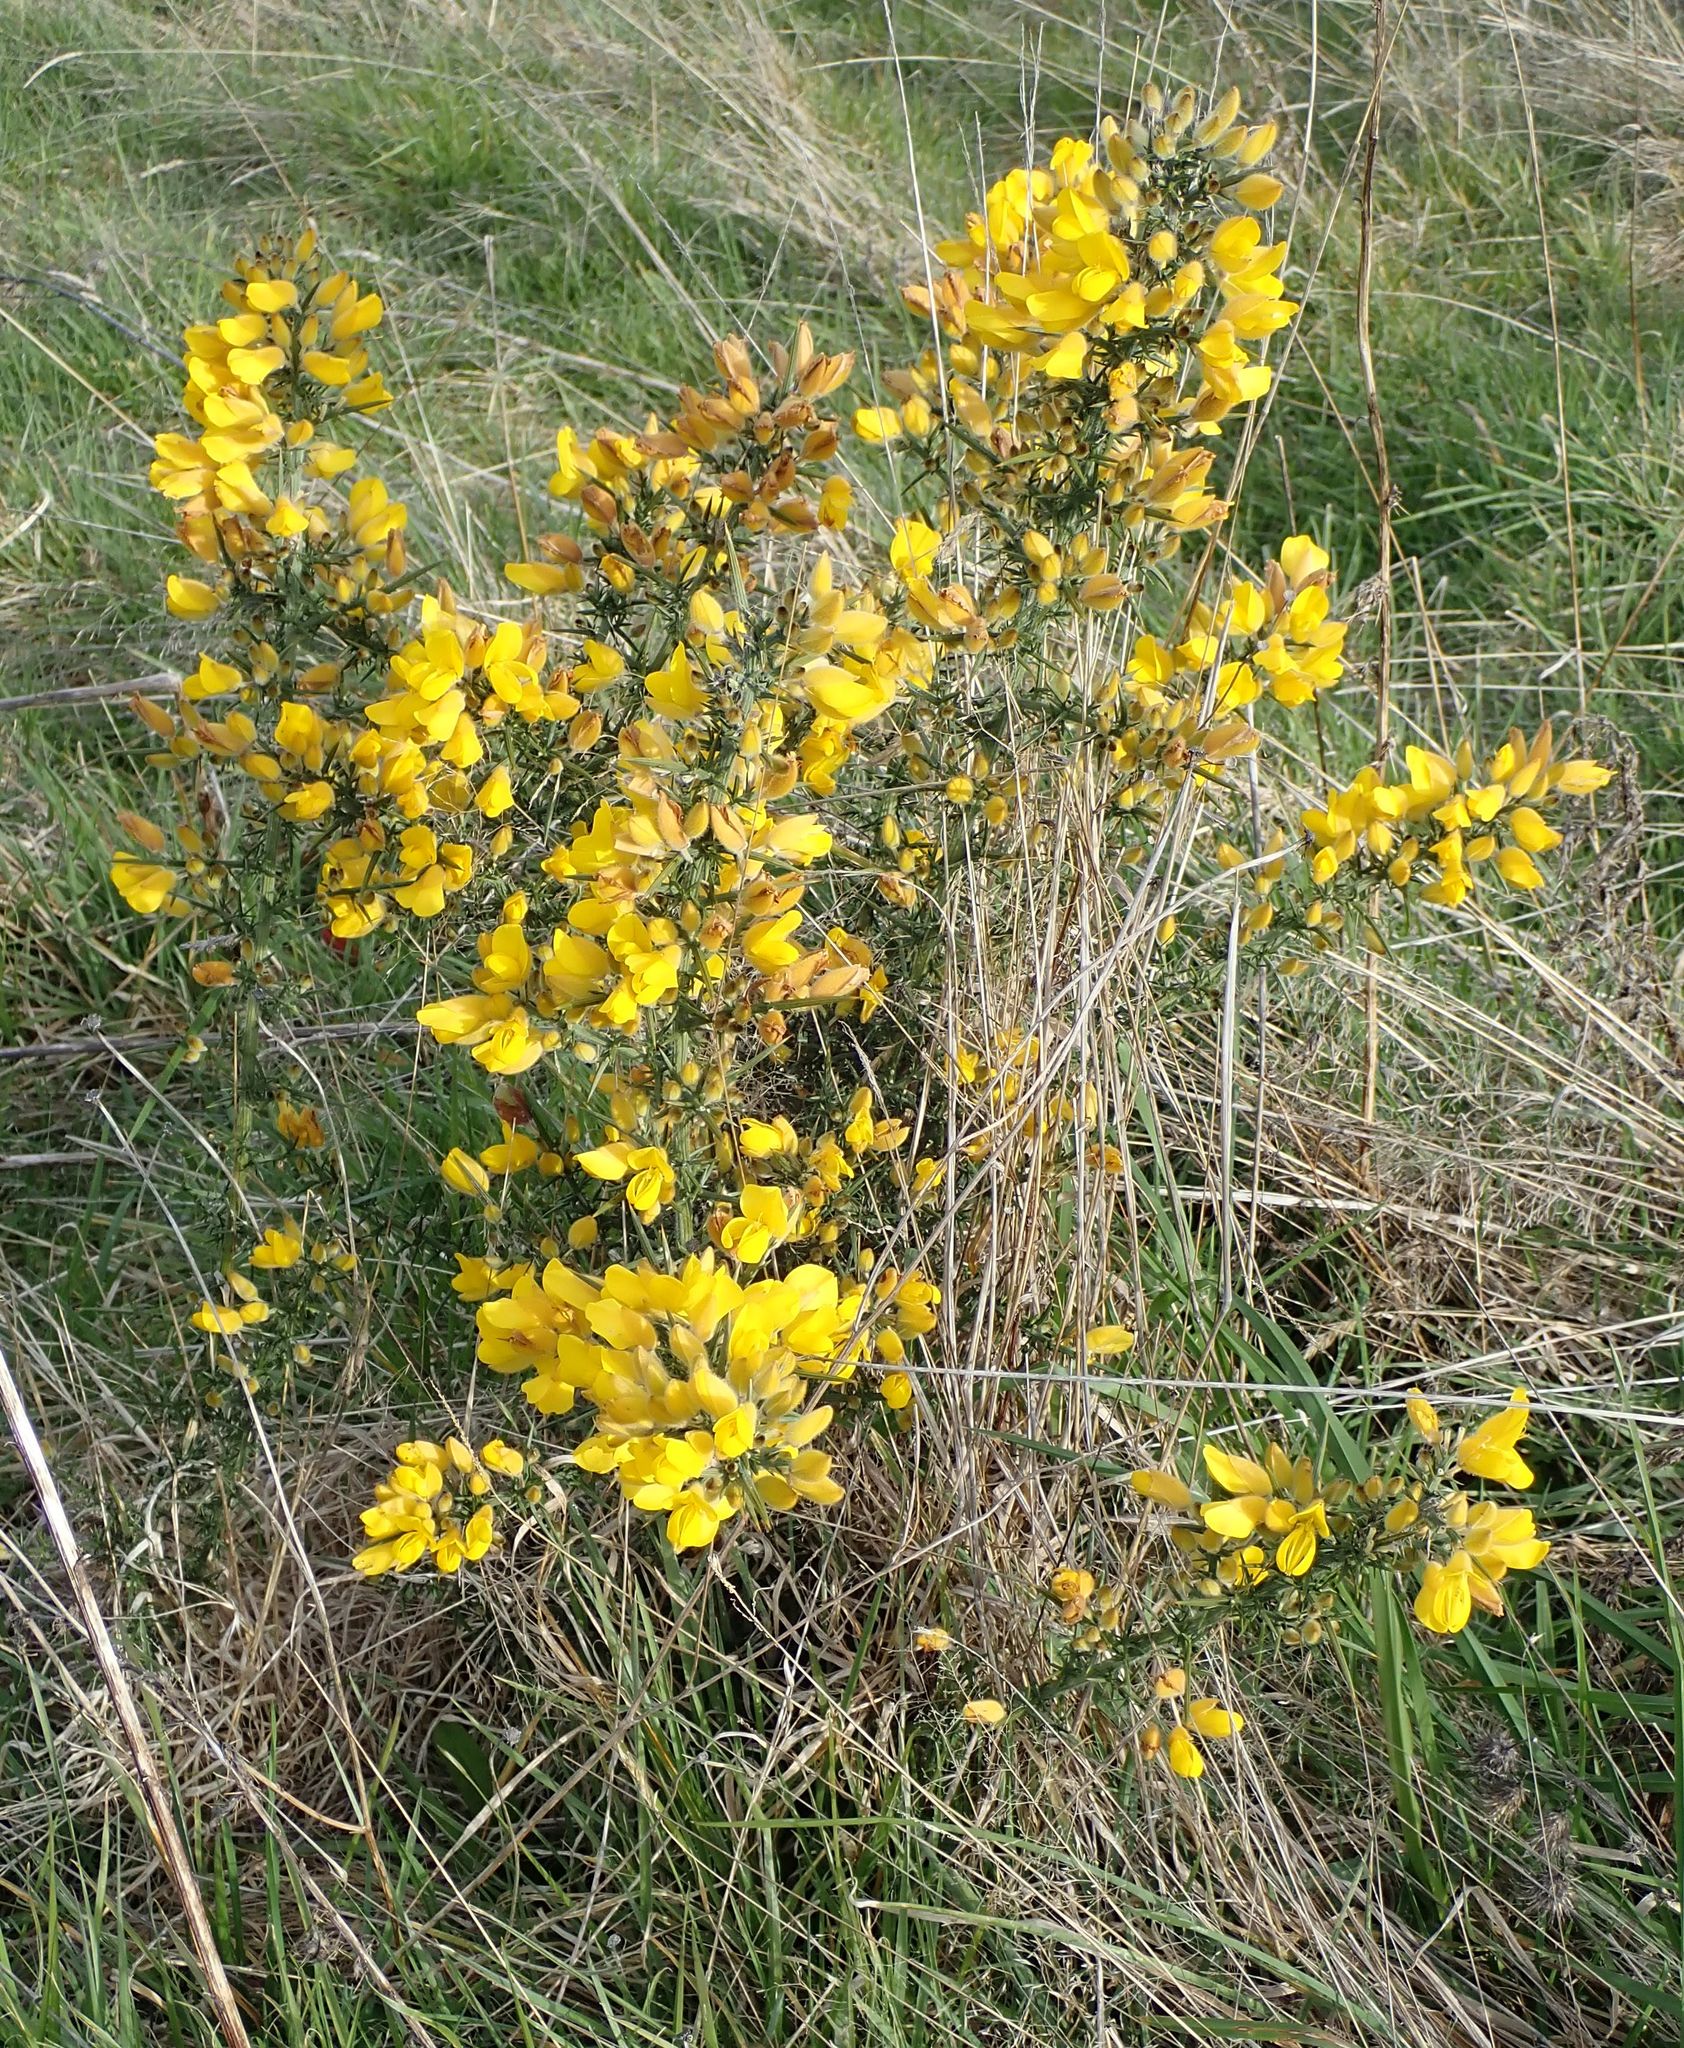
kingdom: Plantae
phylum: Tracheophyta
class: Magnoliopsida
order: Fabales
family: Fabaceae
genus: Ulex
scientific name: Ulex europaeus
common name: Common gorse
